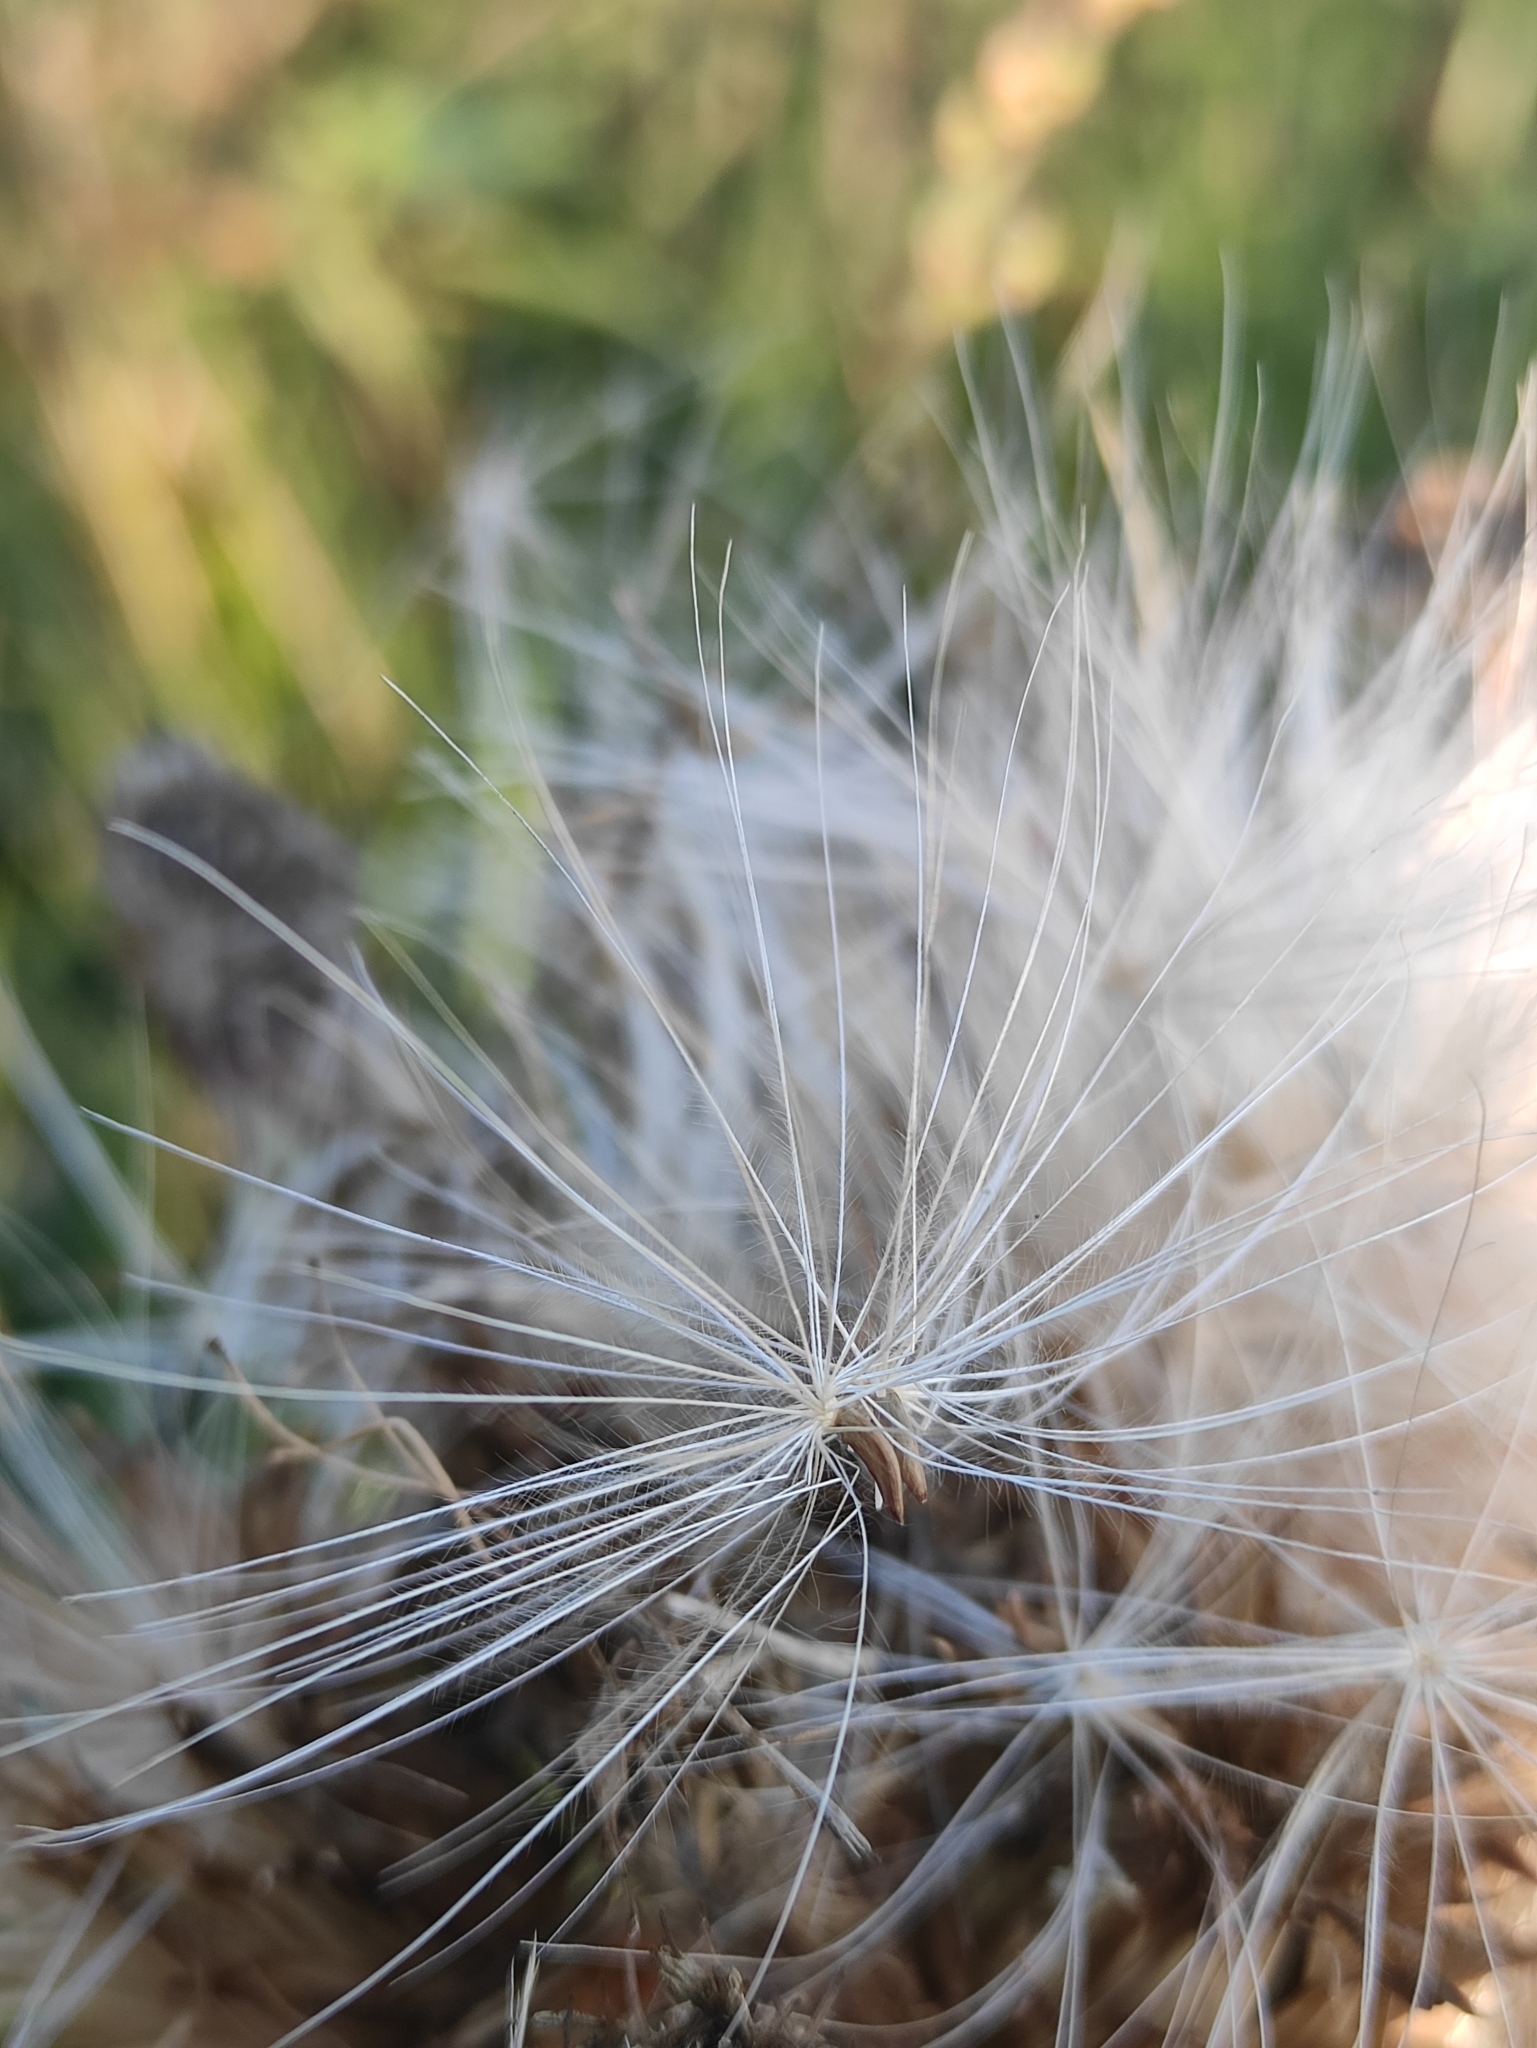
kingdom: Plantae
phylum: Tracheophyta
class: Magnoliopsida
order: Asterales
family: Asteraceae
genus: Cirsium
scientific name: Cirsium esculentum
